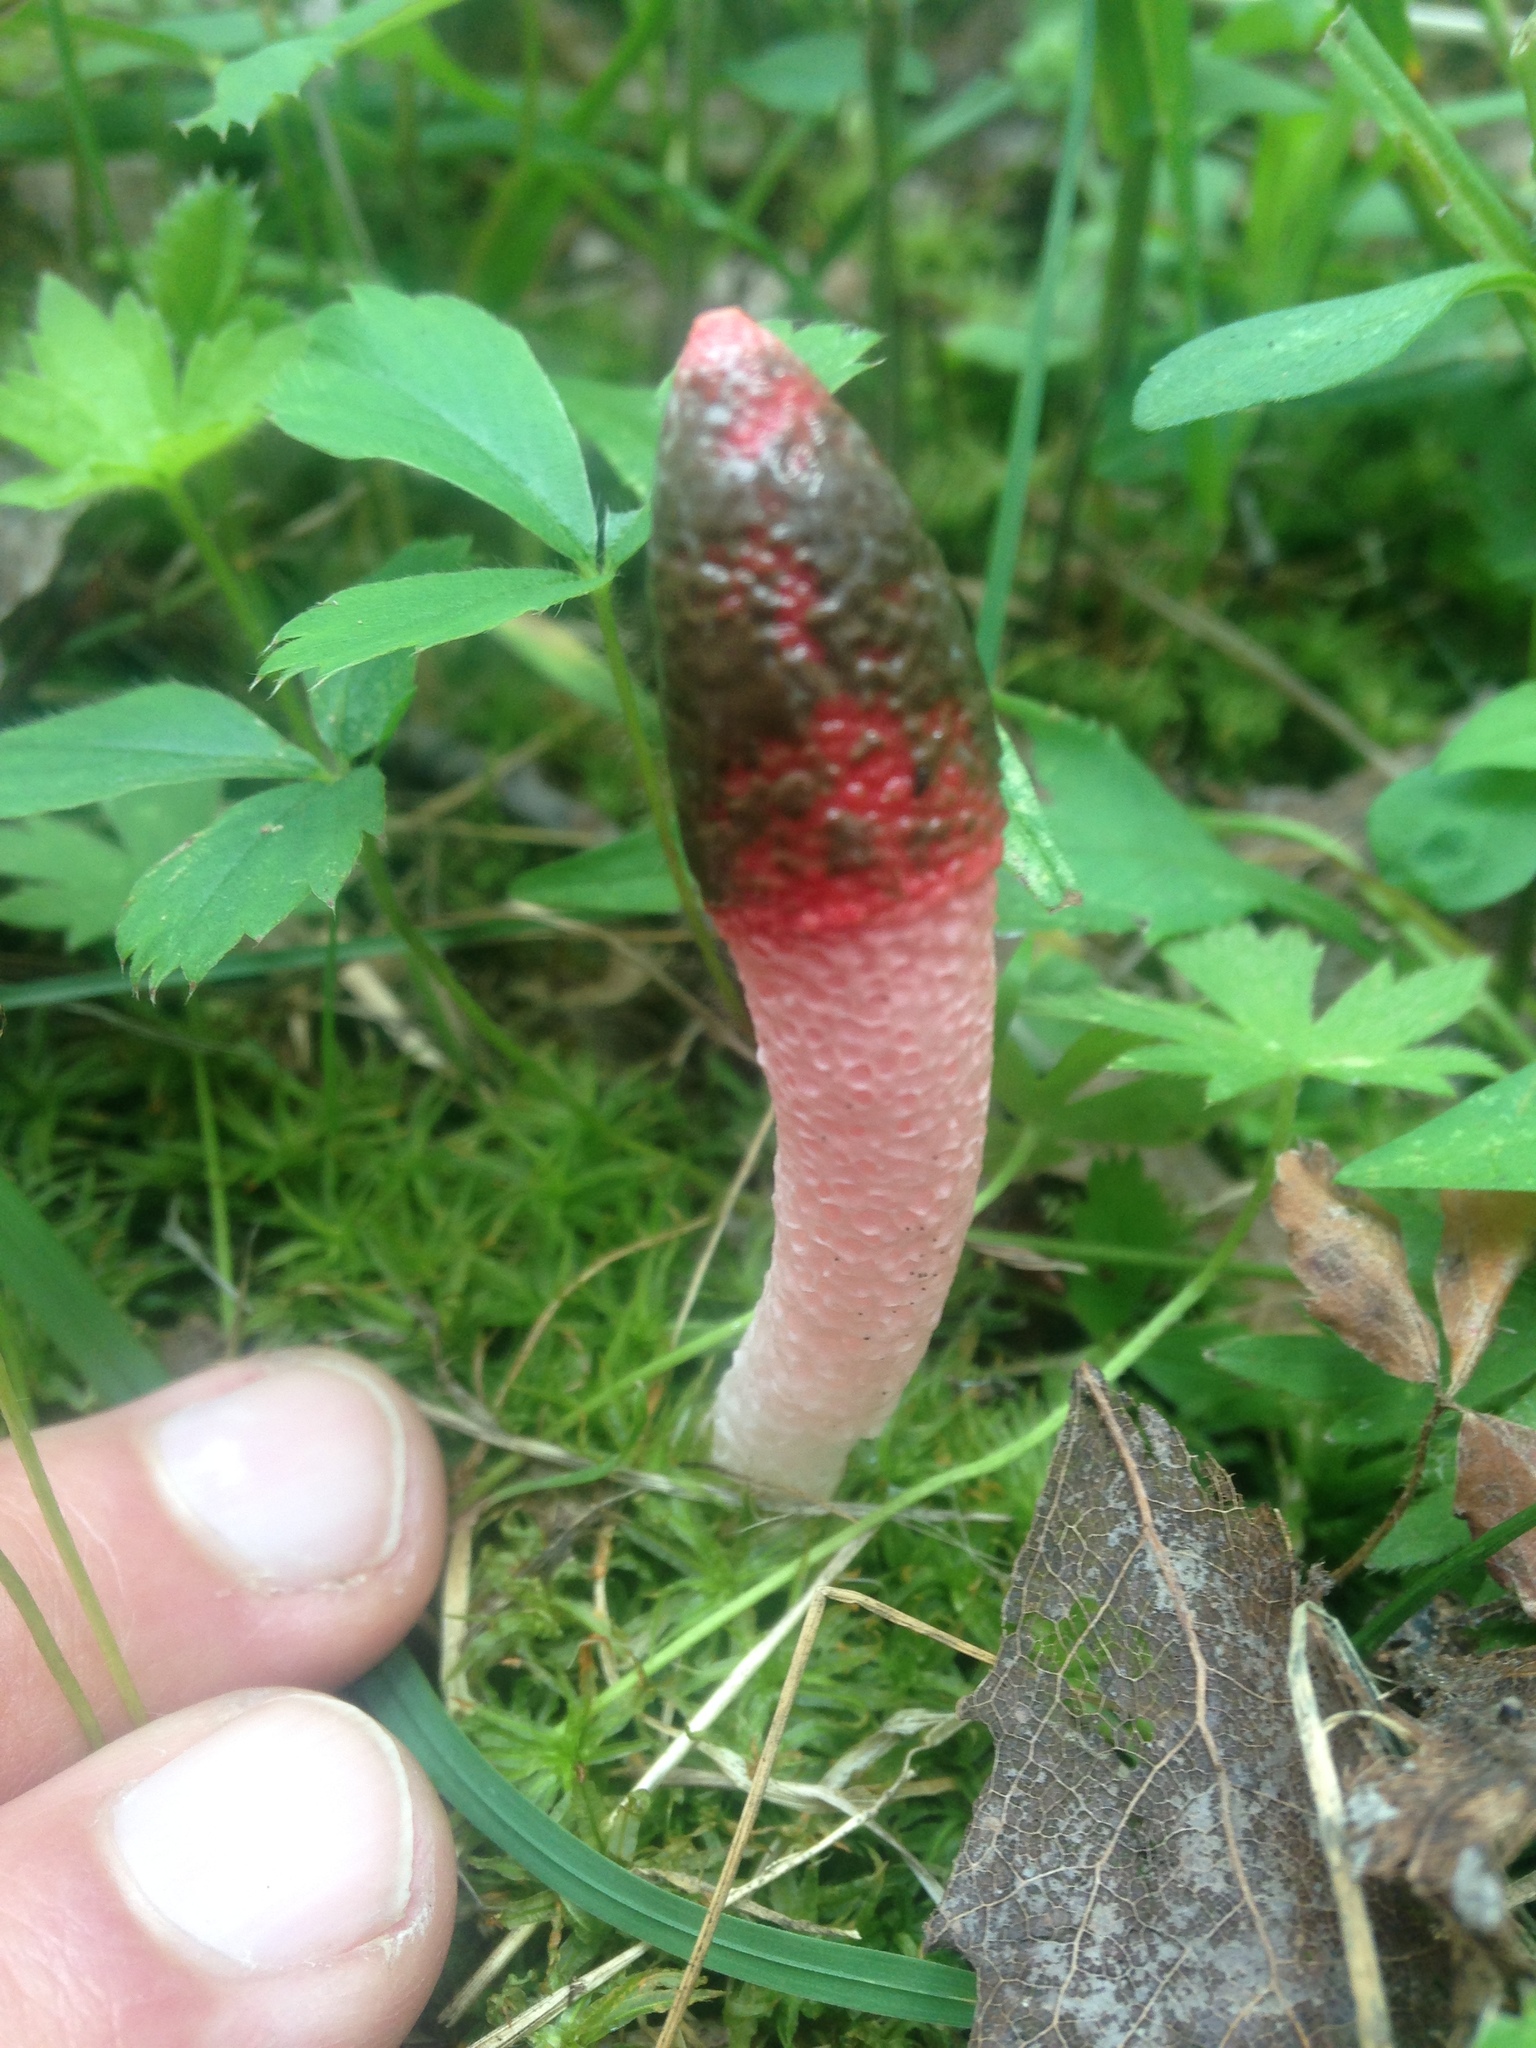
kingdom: Fungi
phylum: Basidiomycota
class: Agaricomycetes
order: Phallales
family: Phallaceae
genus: Mutinus
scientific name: Mutinus ravenelii
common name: Red stinkhorn
